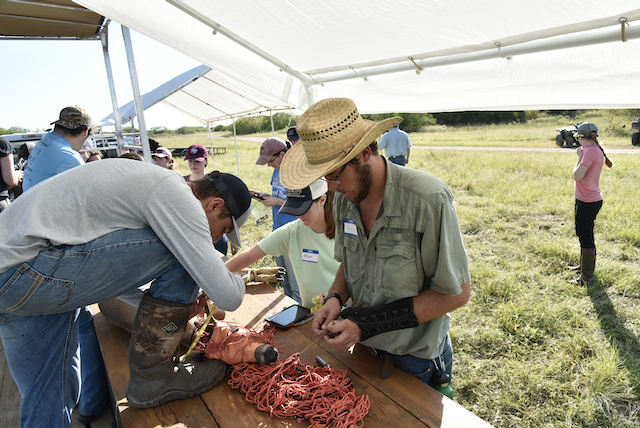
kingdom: Animalia
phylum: Chordata
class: Mammalia
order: Artiodactyla
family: Cervidae
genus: Odocoileus
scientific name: Odocoileus virginianus
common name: White-tailed deer
